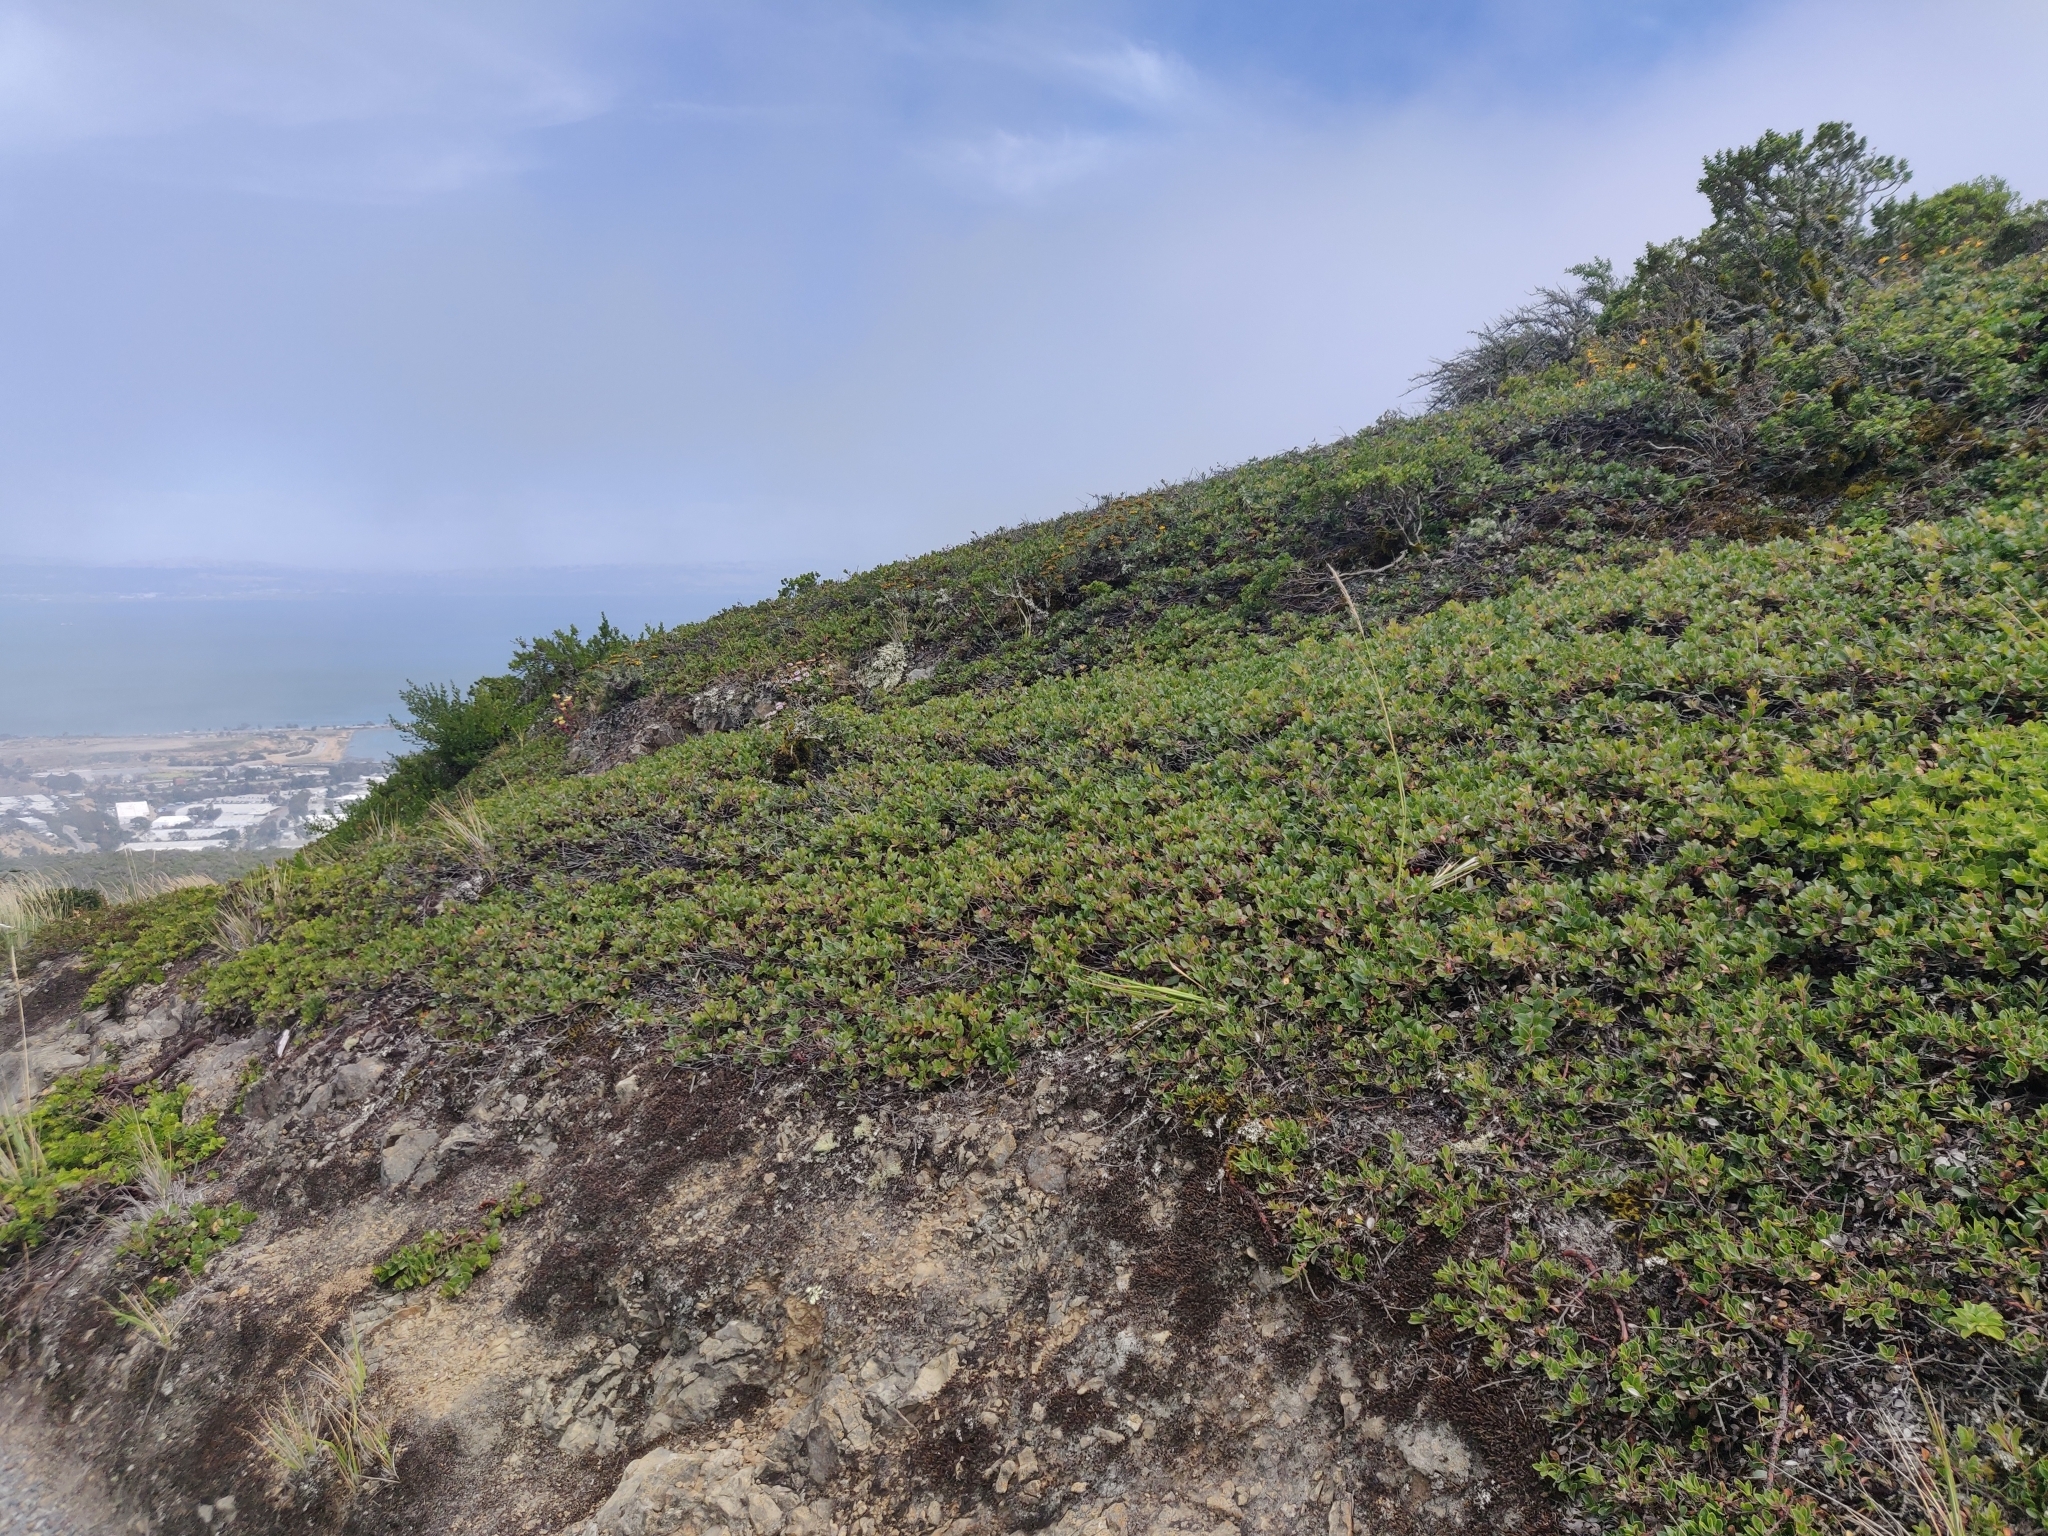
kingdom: Plantae
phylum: Tracheophyta
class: Magnoliopsida
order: Ericales
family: Ericaceae
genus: Arctostaphylos
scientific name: Arctostaphylos uva-ursi
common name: Bearberry
